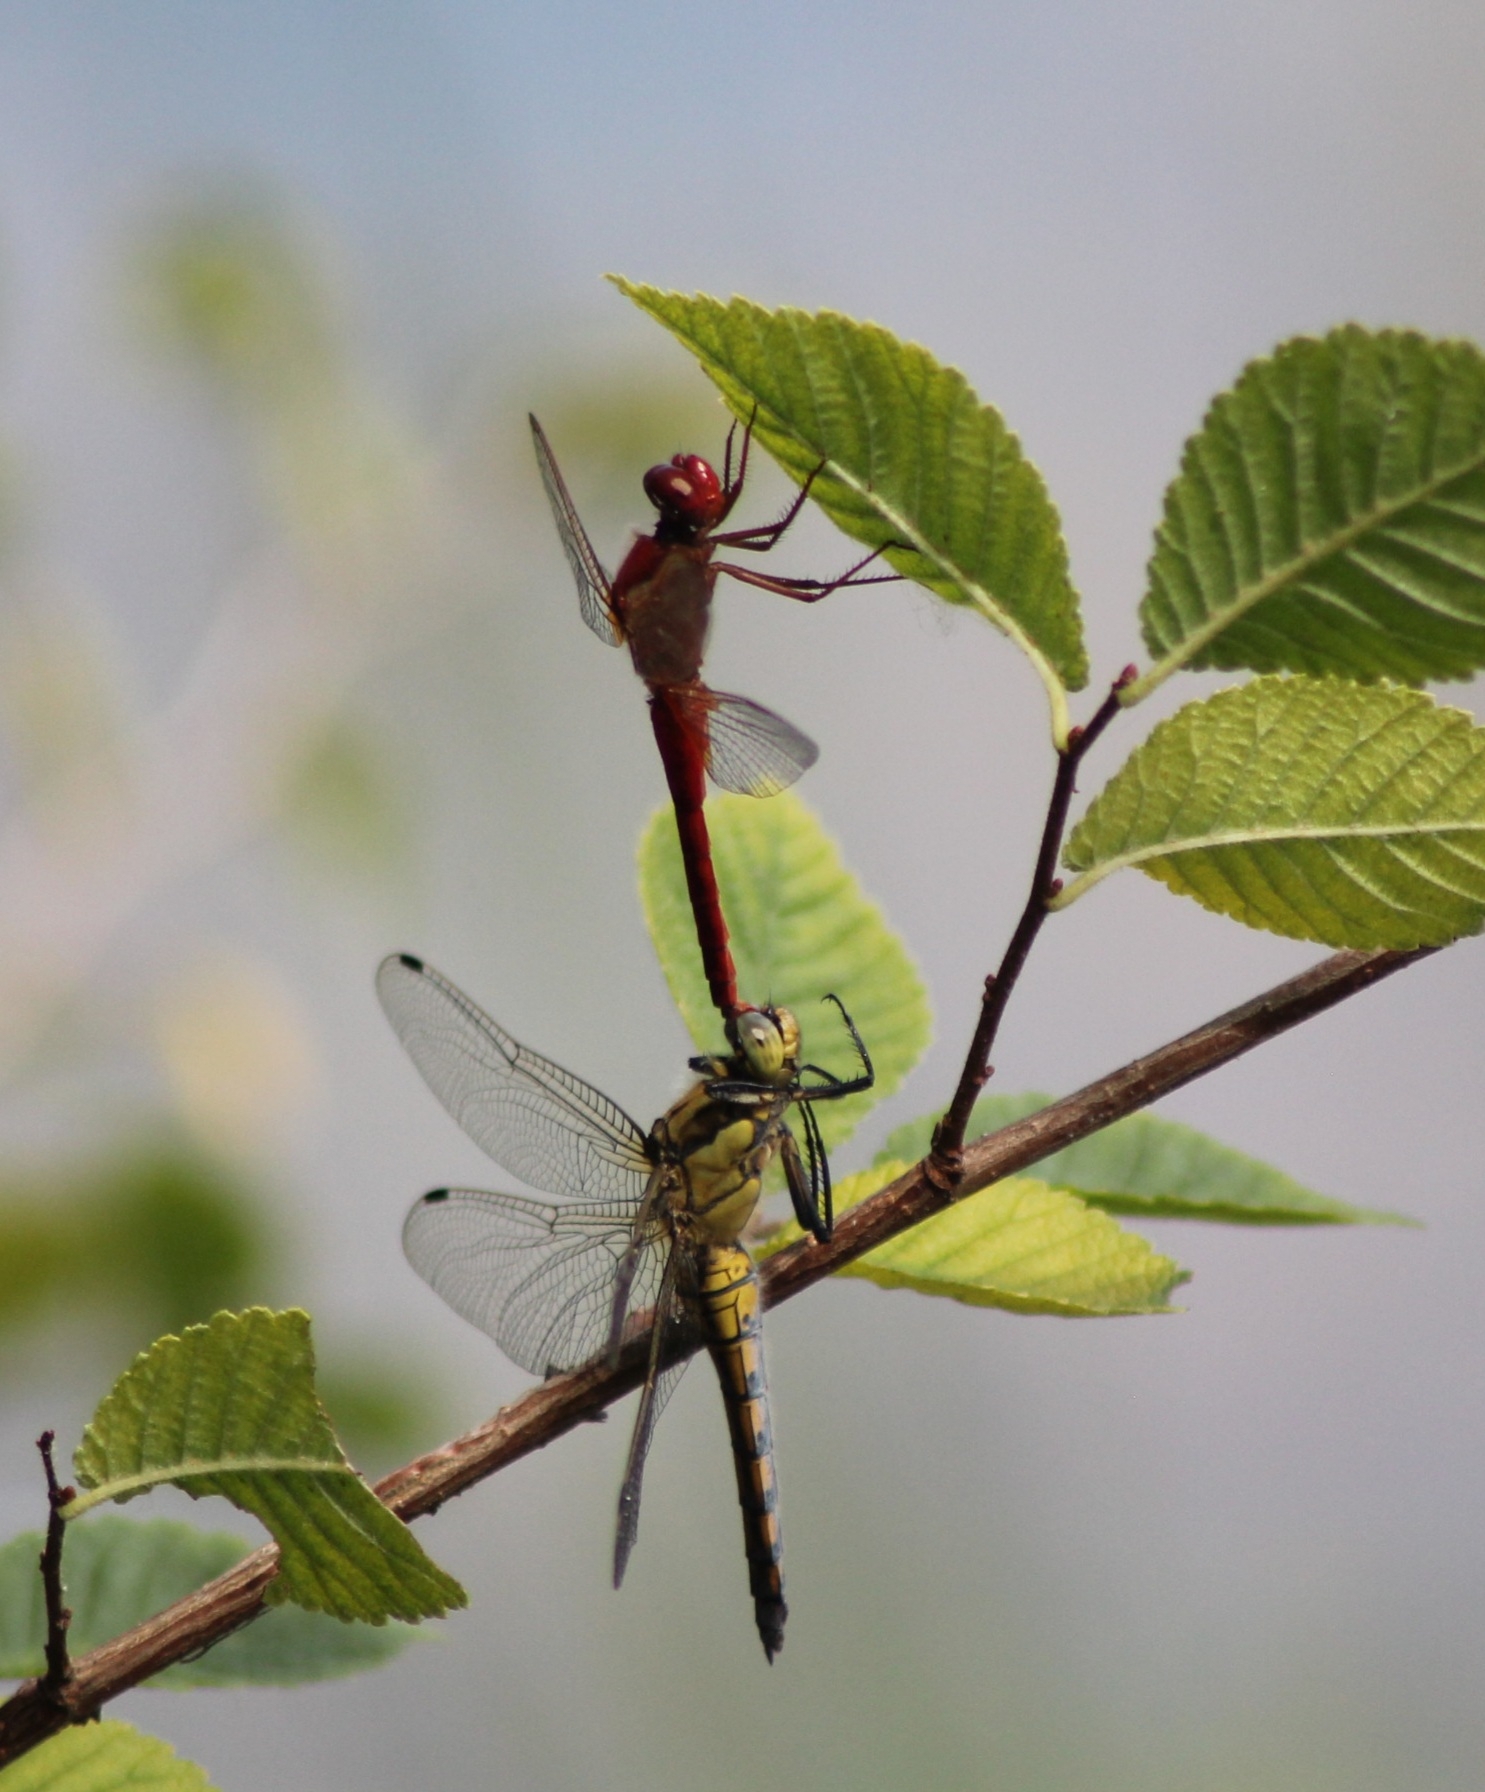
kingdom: Animalia
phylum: Arthropoda
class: Insecta
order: Odonata
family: Libellulidae
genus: Crocothemis
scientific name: Crocothemis erythraea
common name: Scarlet dragonfly
